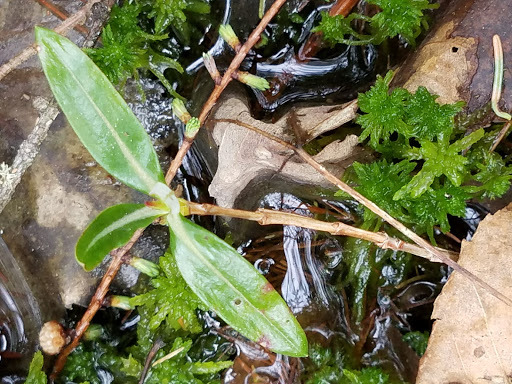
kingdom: Plantae
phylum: Tracheophyta
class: Magnoliopsida
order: Ericales
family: Ericaceae
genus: Kalmia
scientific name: Kalmia polifolia
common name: Bog-laurel
